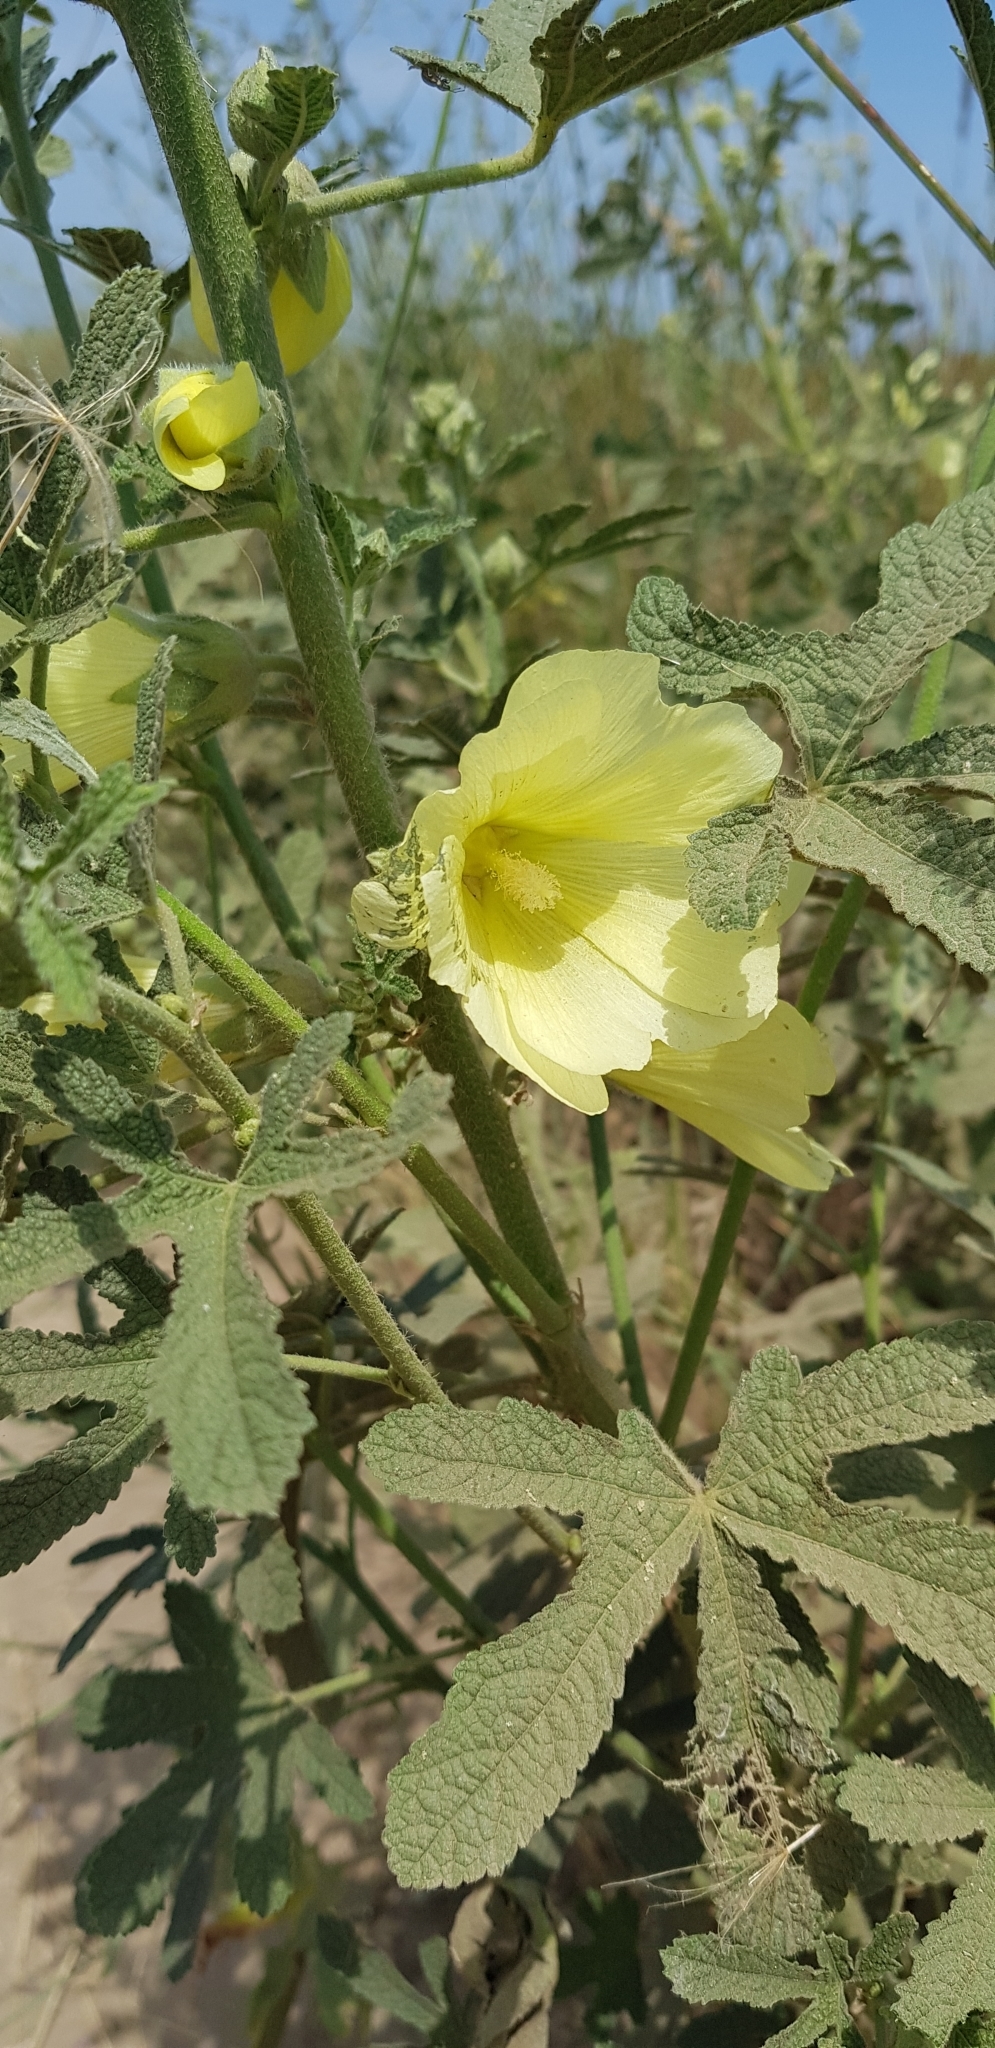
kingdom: Plantae
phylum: Tracheophyta
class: Magnoliopsida
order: Malvales
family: Malvaceae
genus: Alcea
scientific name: Alcea rugosa
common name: Russian hollyhock
